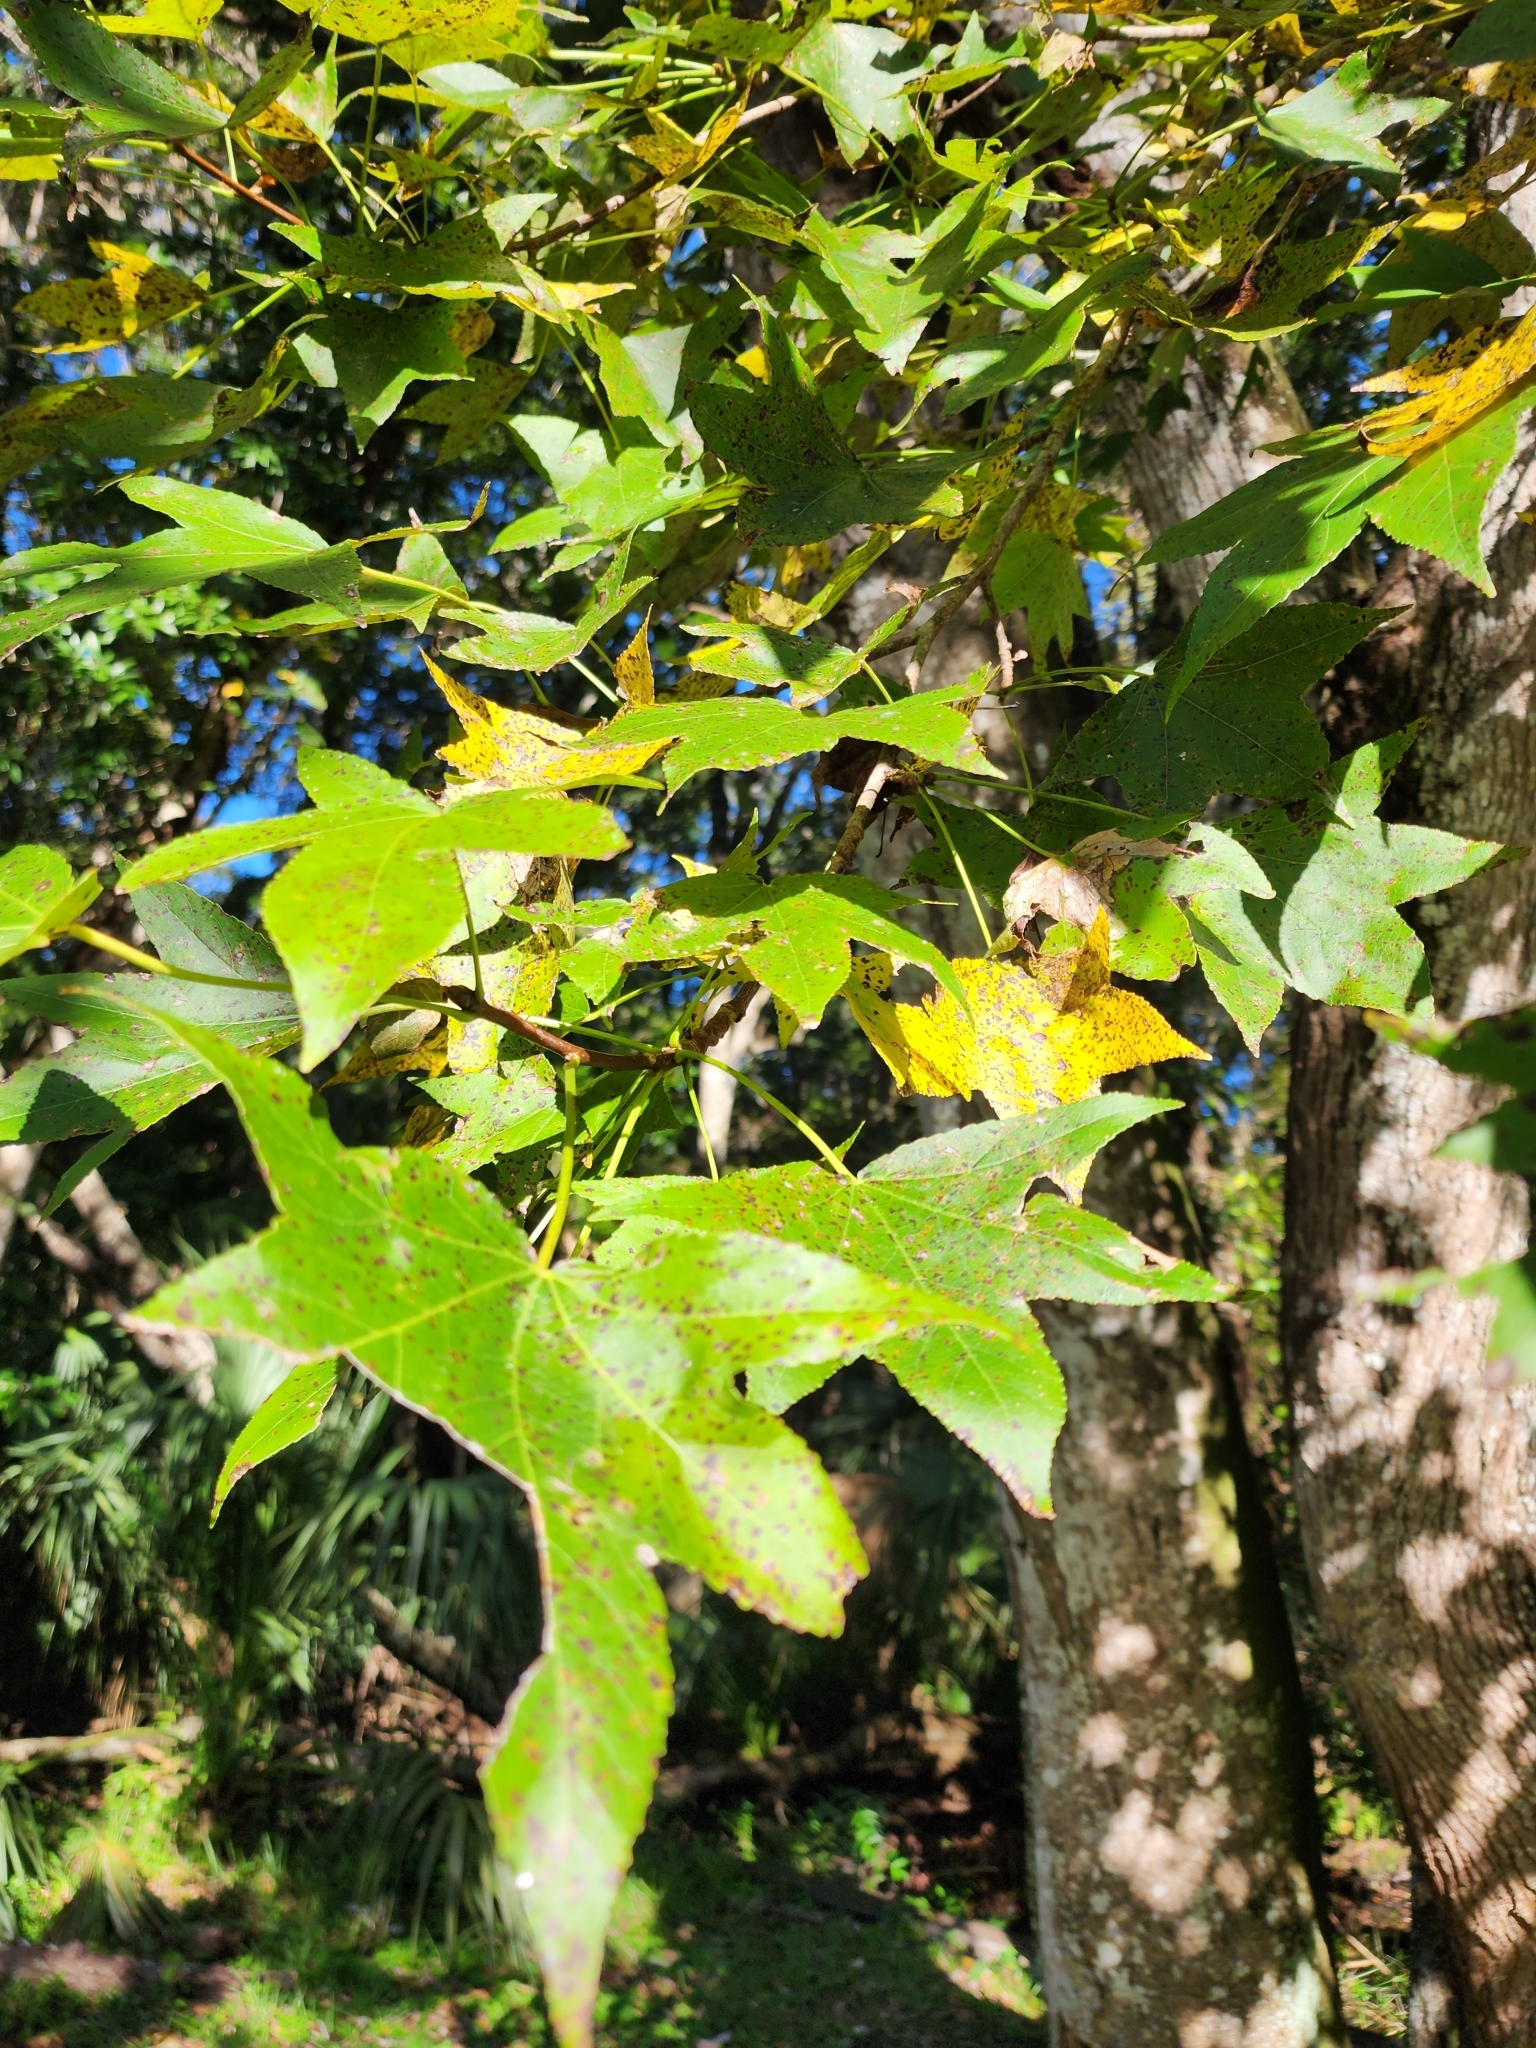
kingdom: Plantae
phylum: Tracheophyta
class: Magnoliopsida
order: Saxifragales
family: Altingiaceae
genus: Liquidambar
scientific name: Liquidambar styraciflua
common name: Sweet gum
